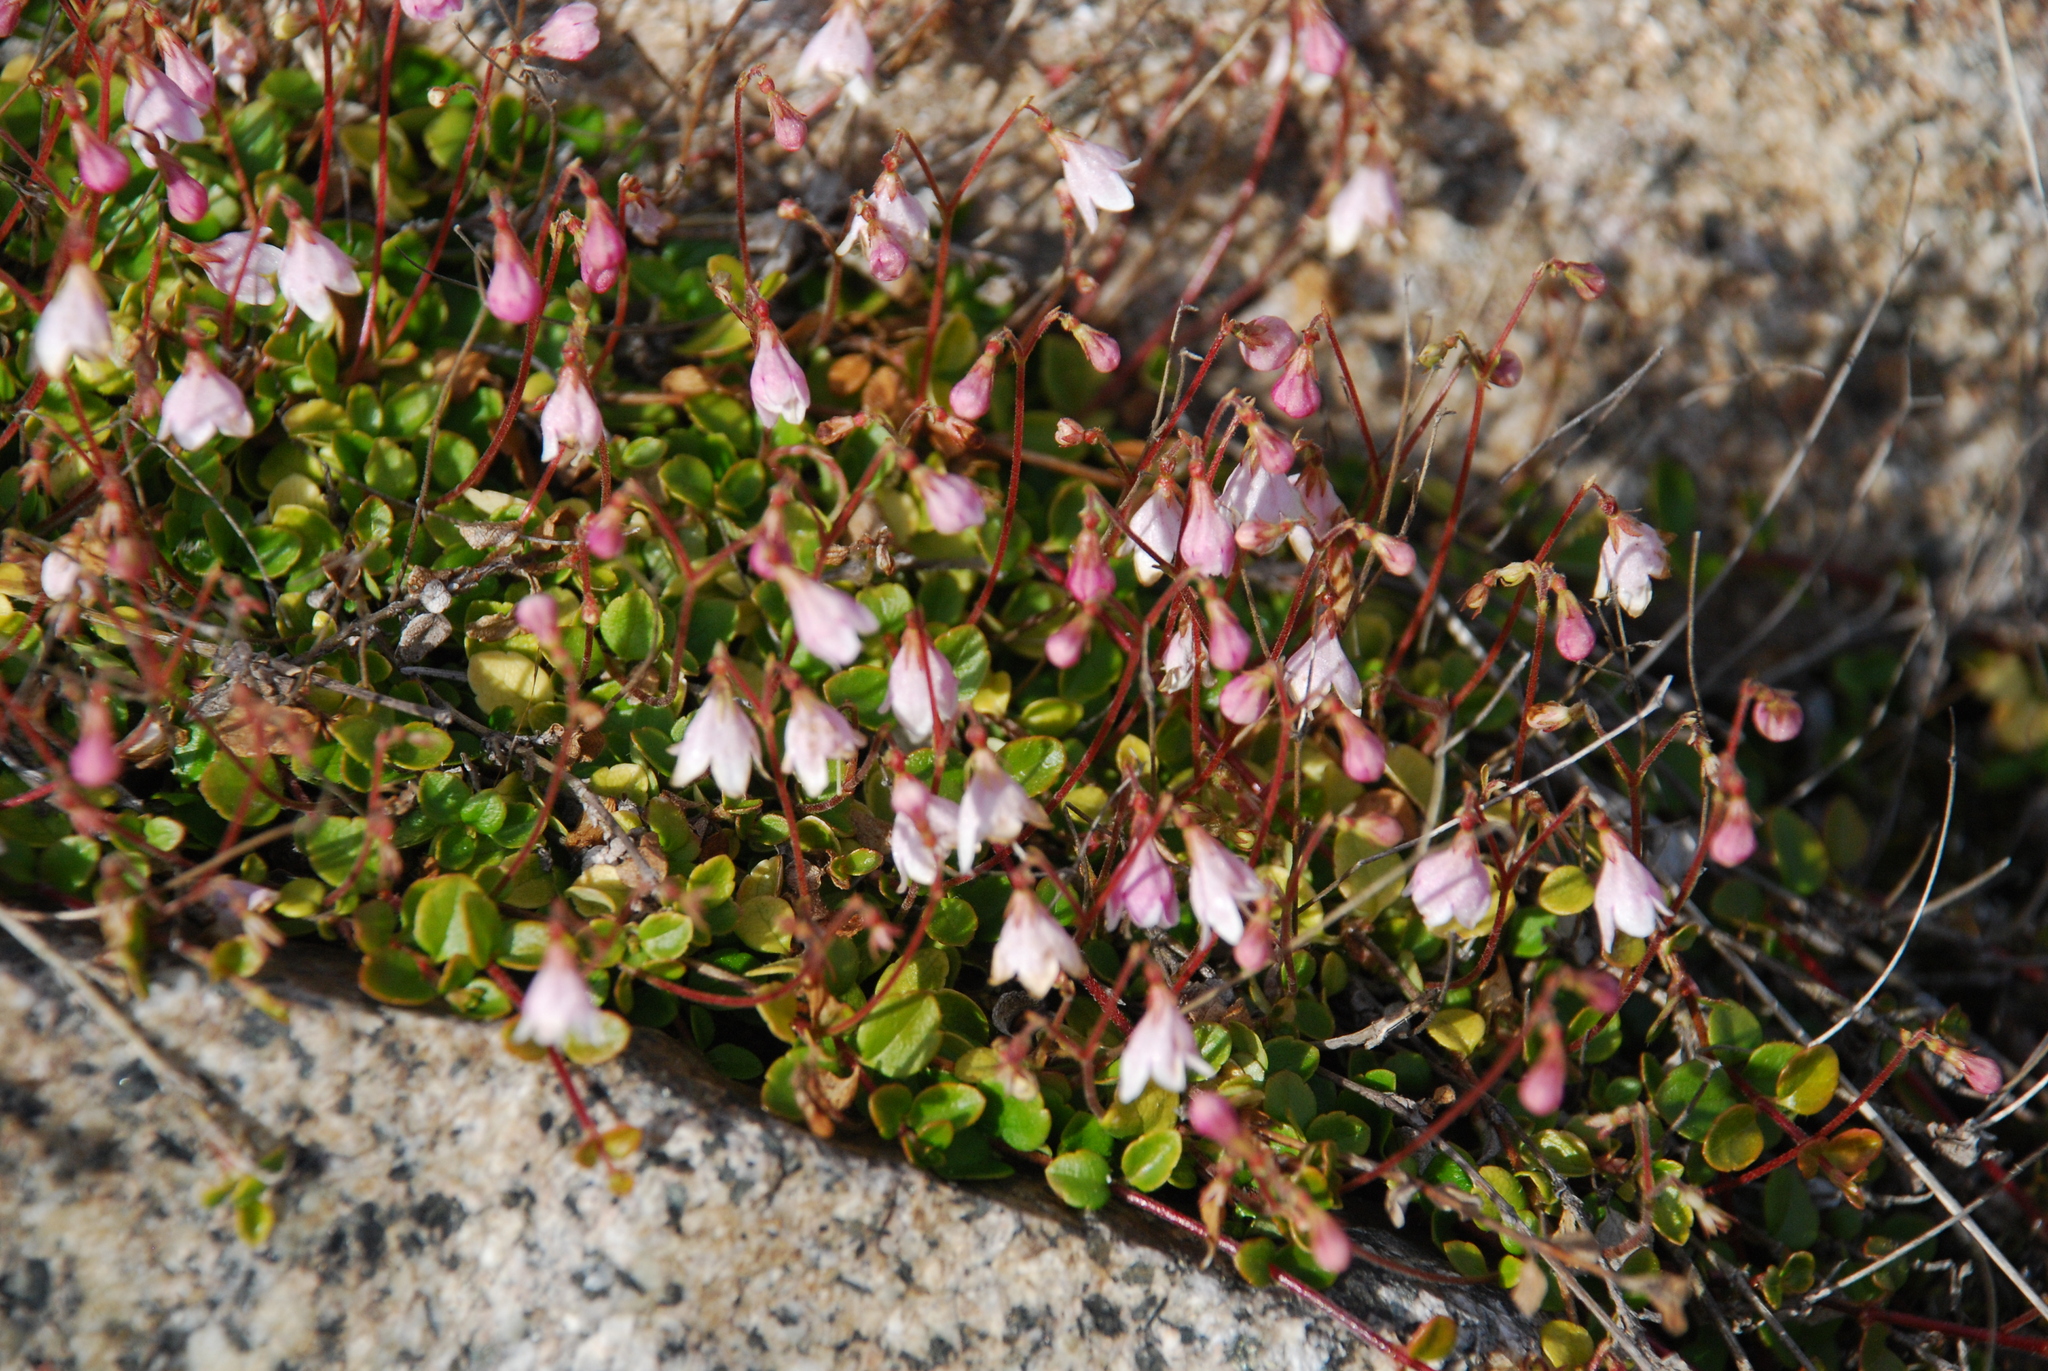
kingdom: Plantae
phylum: Tracheophyta
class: Magnoliopsida
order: Dipsacales
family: Caprifoliaceae
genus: Linnaea
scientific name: Linnaea borealis
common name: Twinflower
